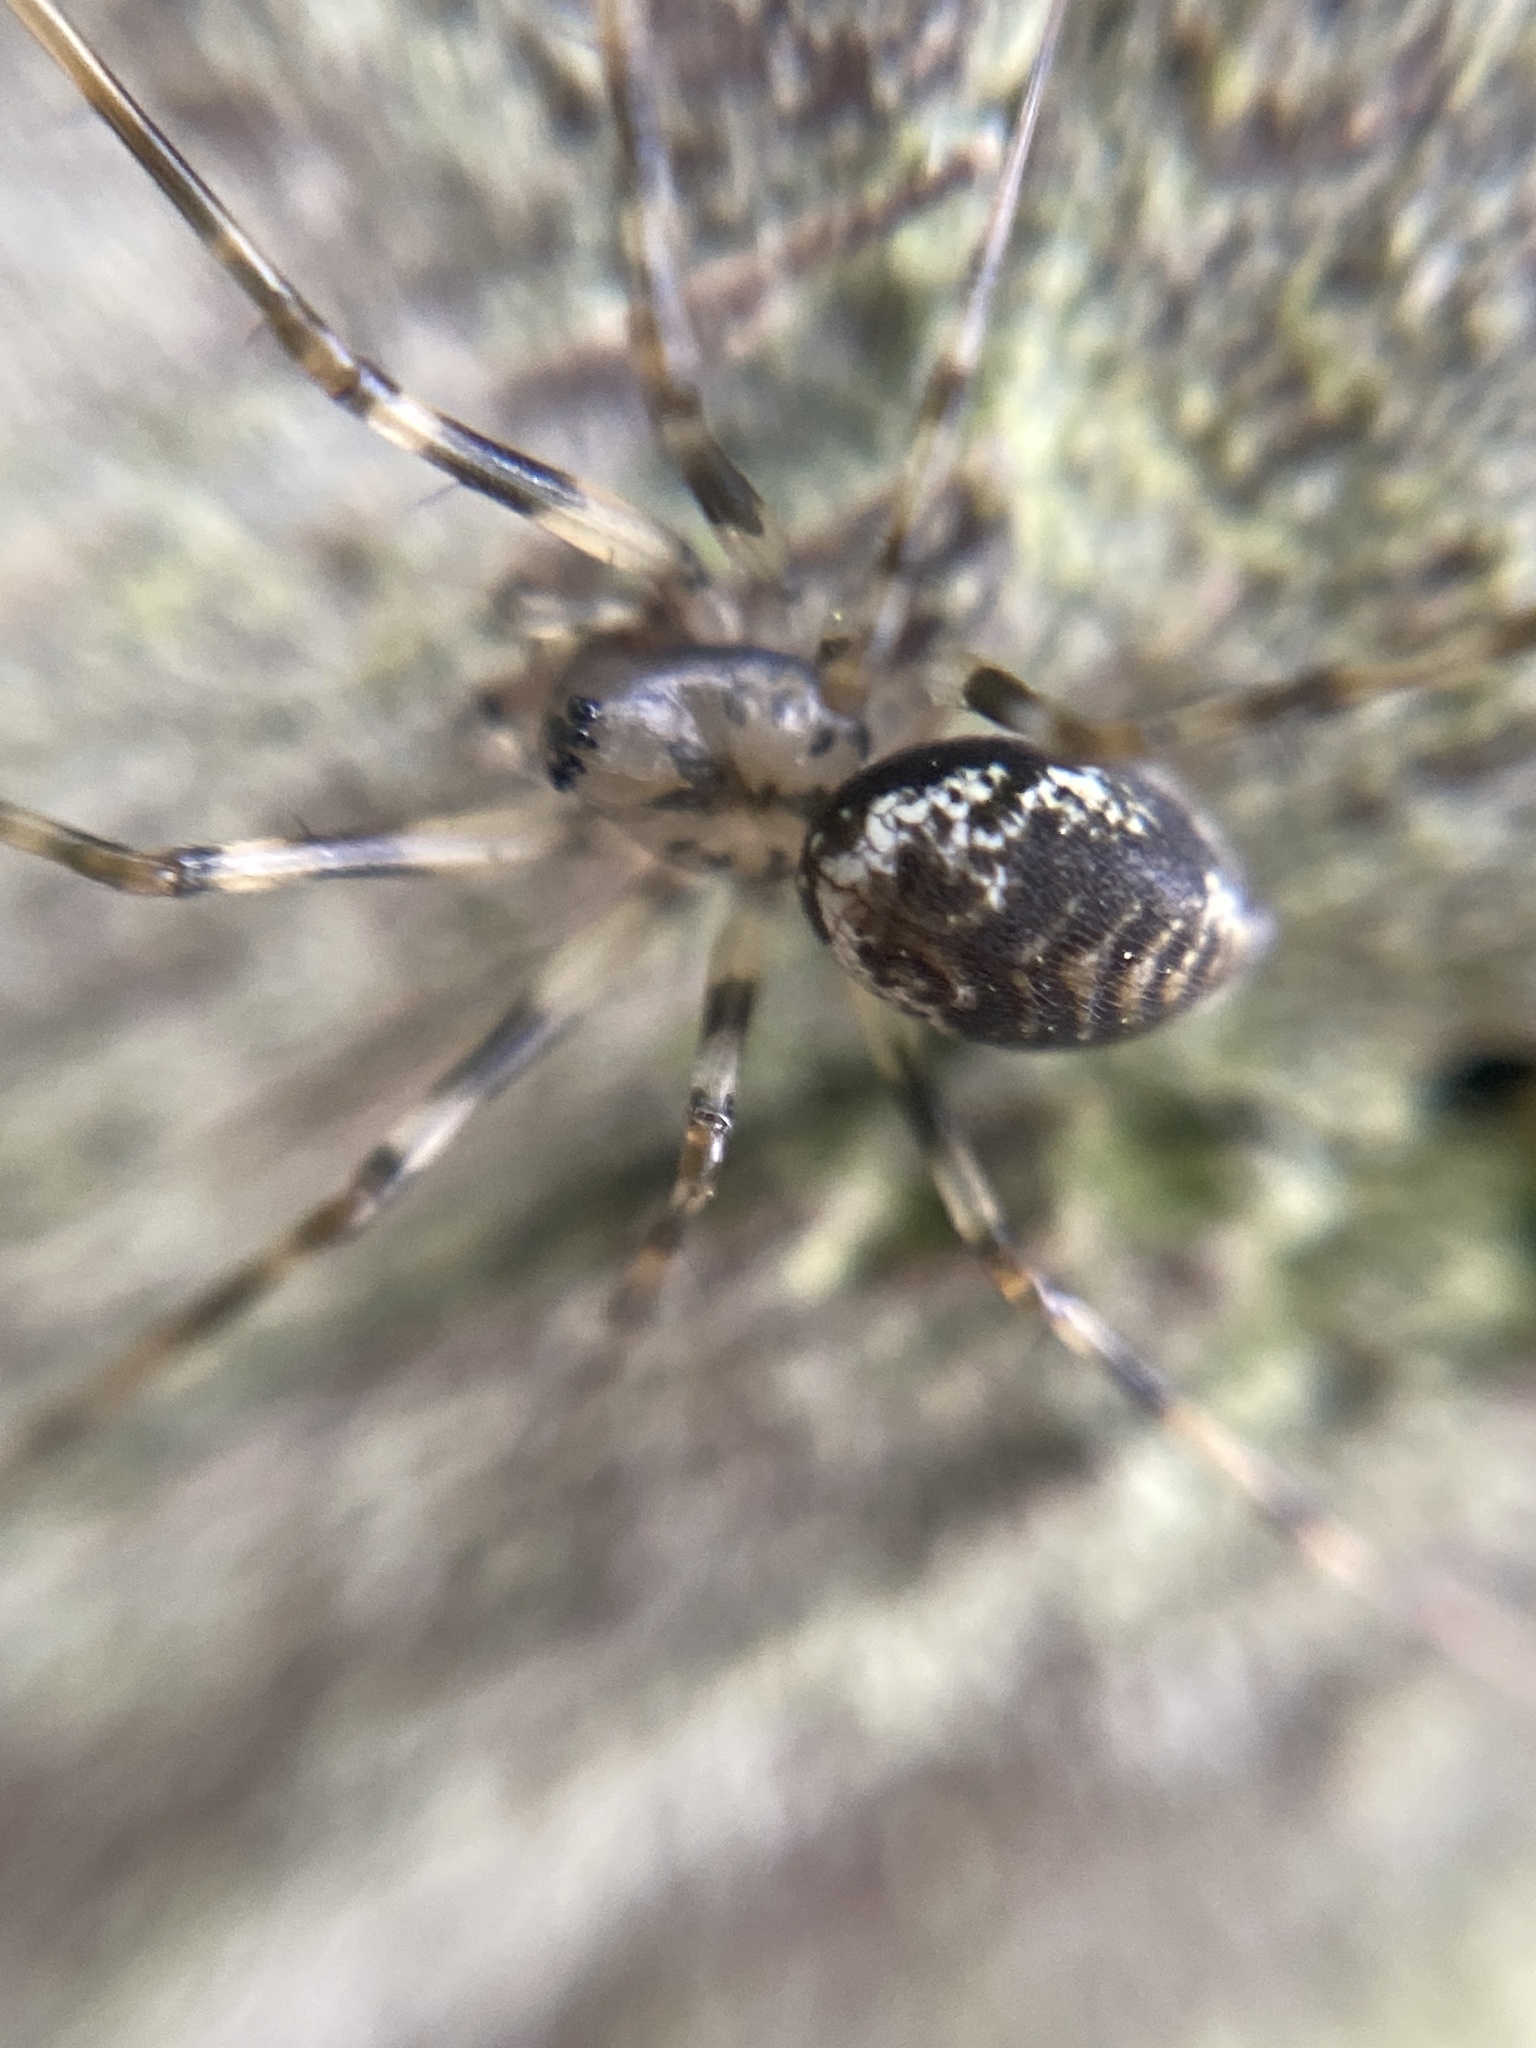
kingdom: Animalia
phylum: Arthropoda
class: Arachnida
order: Araneae
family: Linyphiidae
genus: Drapetisca
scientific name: Drapetisca socialis
